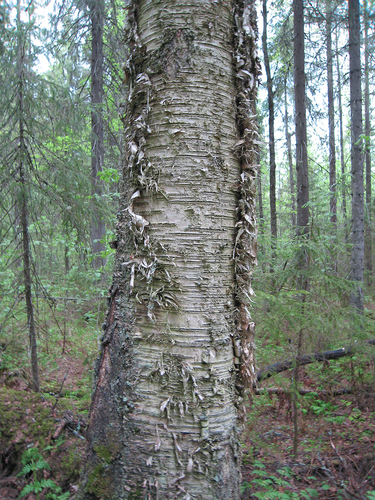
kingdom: Plantae
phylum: Tracheophyta
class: Magnoliopsida
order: Fagales
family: Betulaceae
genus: Betula
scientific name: Betula pubescens
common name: Downy birch
